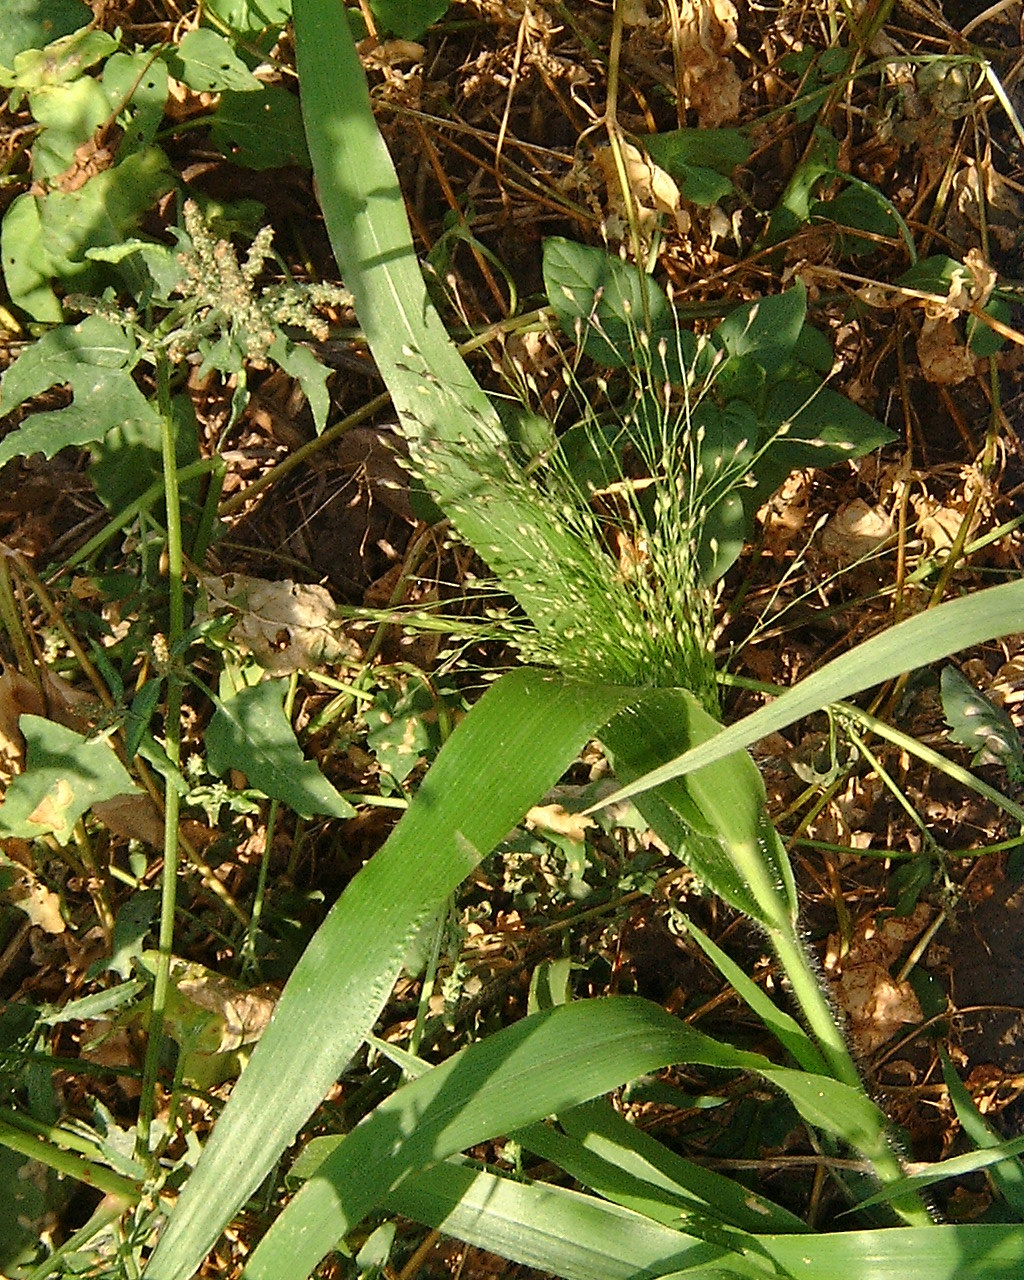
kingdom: Plantae
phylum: Tracheophyta
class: Liliopsida
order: Poales
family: Poaceae
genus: Panicum
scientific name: Panicum capillare
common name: Witch-grass
